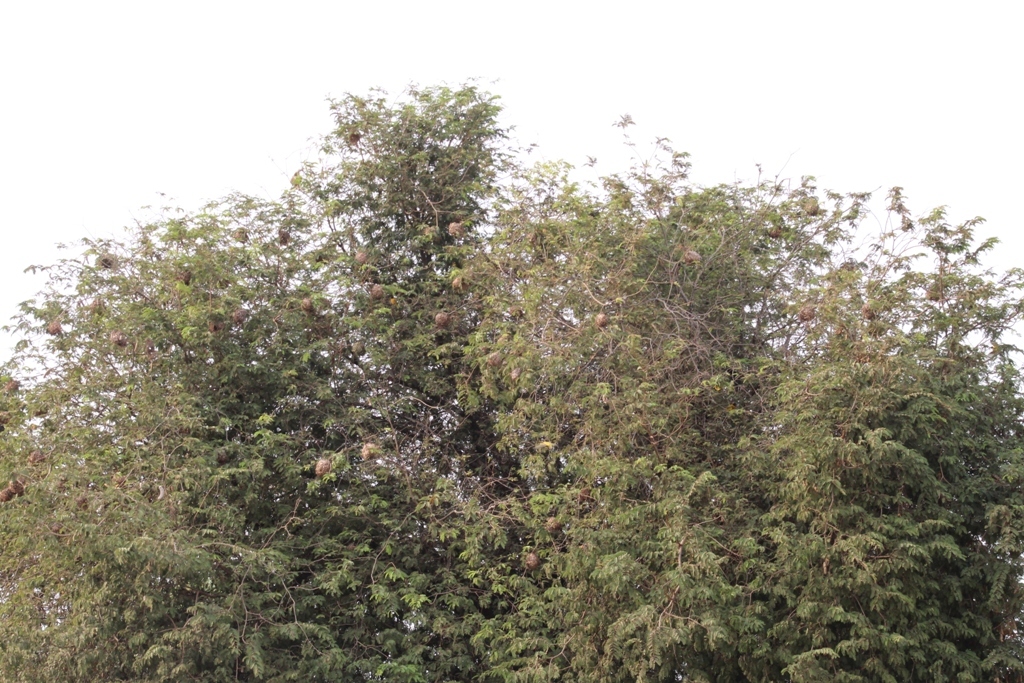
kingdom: Plantae
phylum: Tracheophyta
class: Magnoliopsida
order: Fabales
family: Fabaceae
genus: Tamarindus
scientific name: Tamarindus indica
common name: Tamarind
